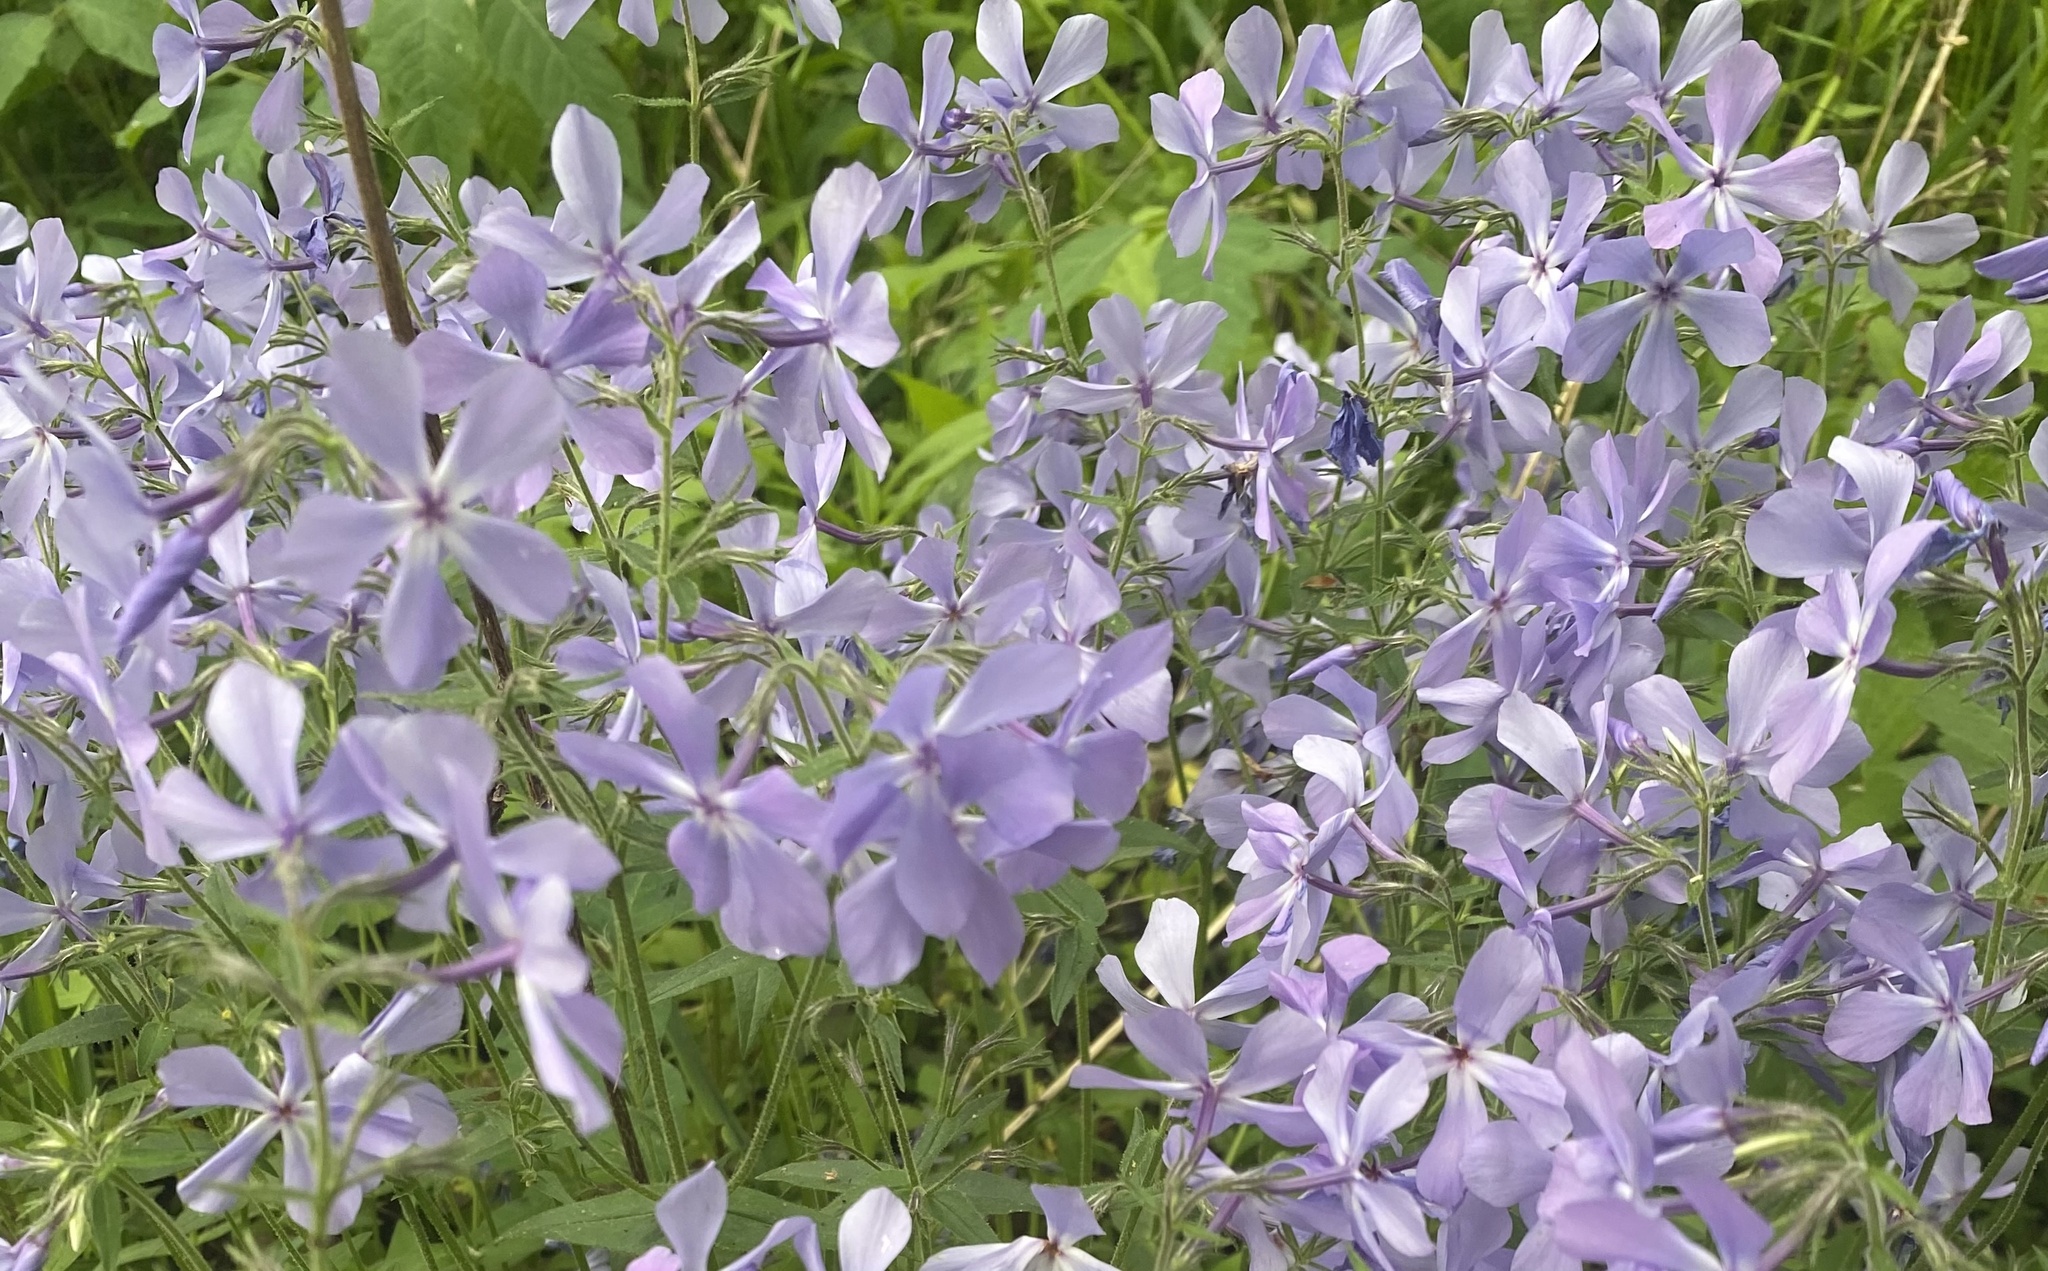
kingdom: Plantae
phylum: Tracheophyta
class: Magnoliopsida
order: Ericales
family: Polemoniaceae
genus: Phlox
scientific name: Phlox divaricata
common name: Blue phlox
